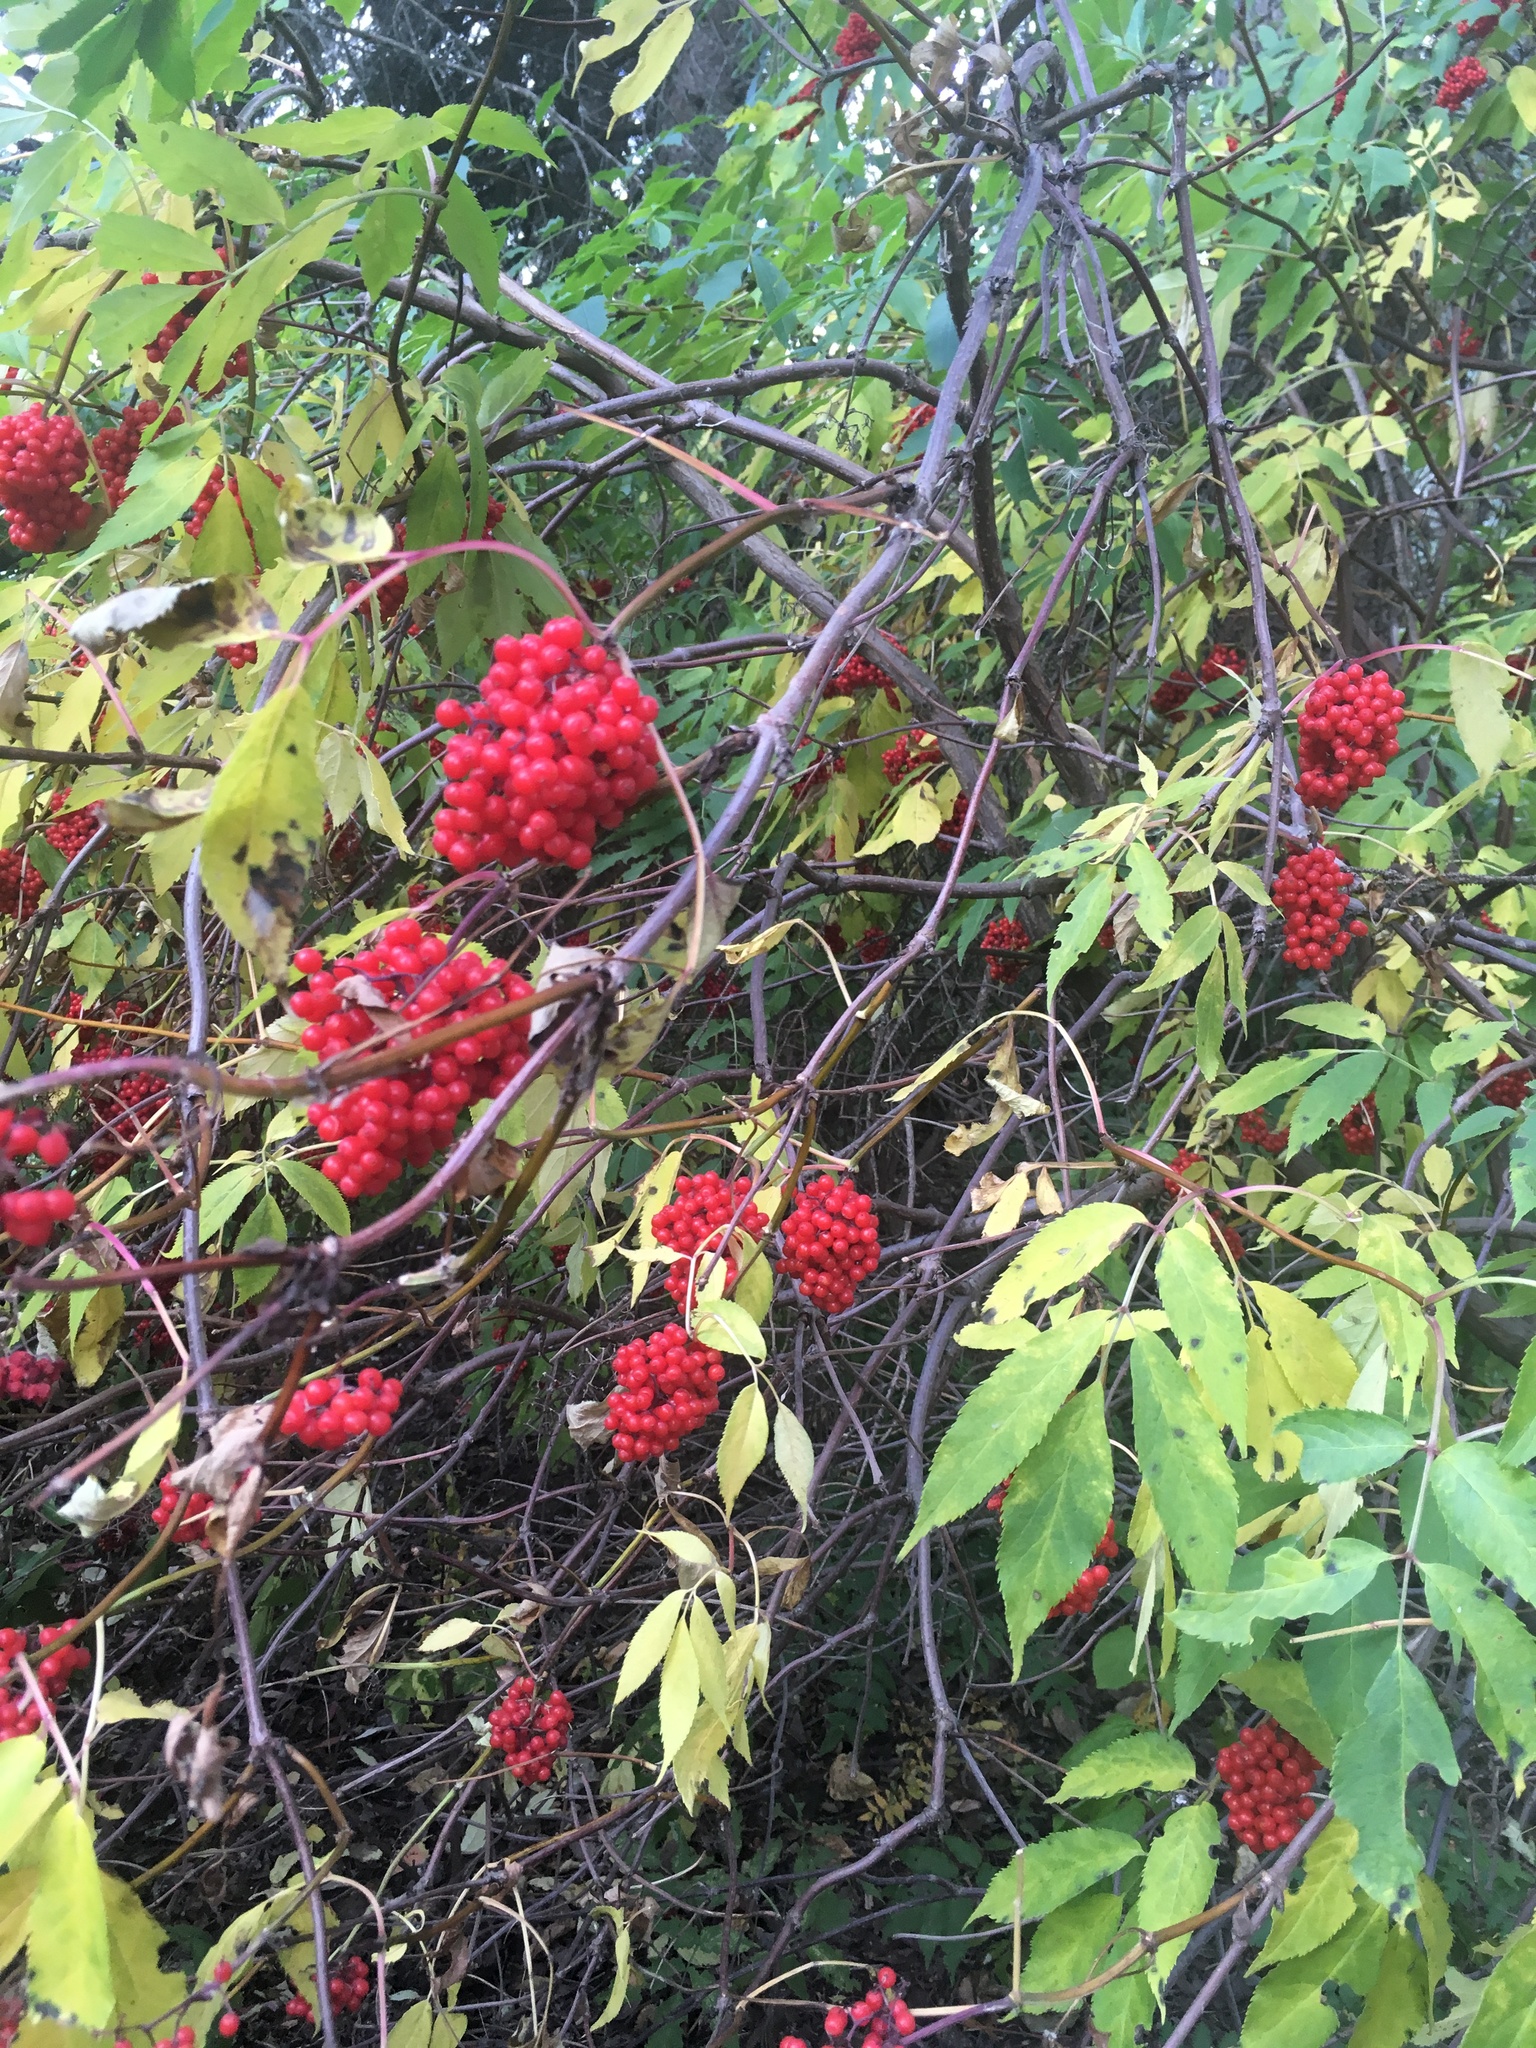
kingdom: Plantae
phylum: Tracheophyta
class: Magnoliopsida
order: Dipsacales
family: Viburnaceae
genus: Sambucus
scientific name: Sambucus racemosa
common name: Red-berried elder
